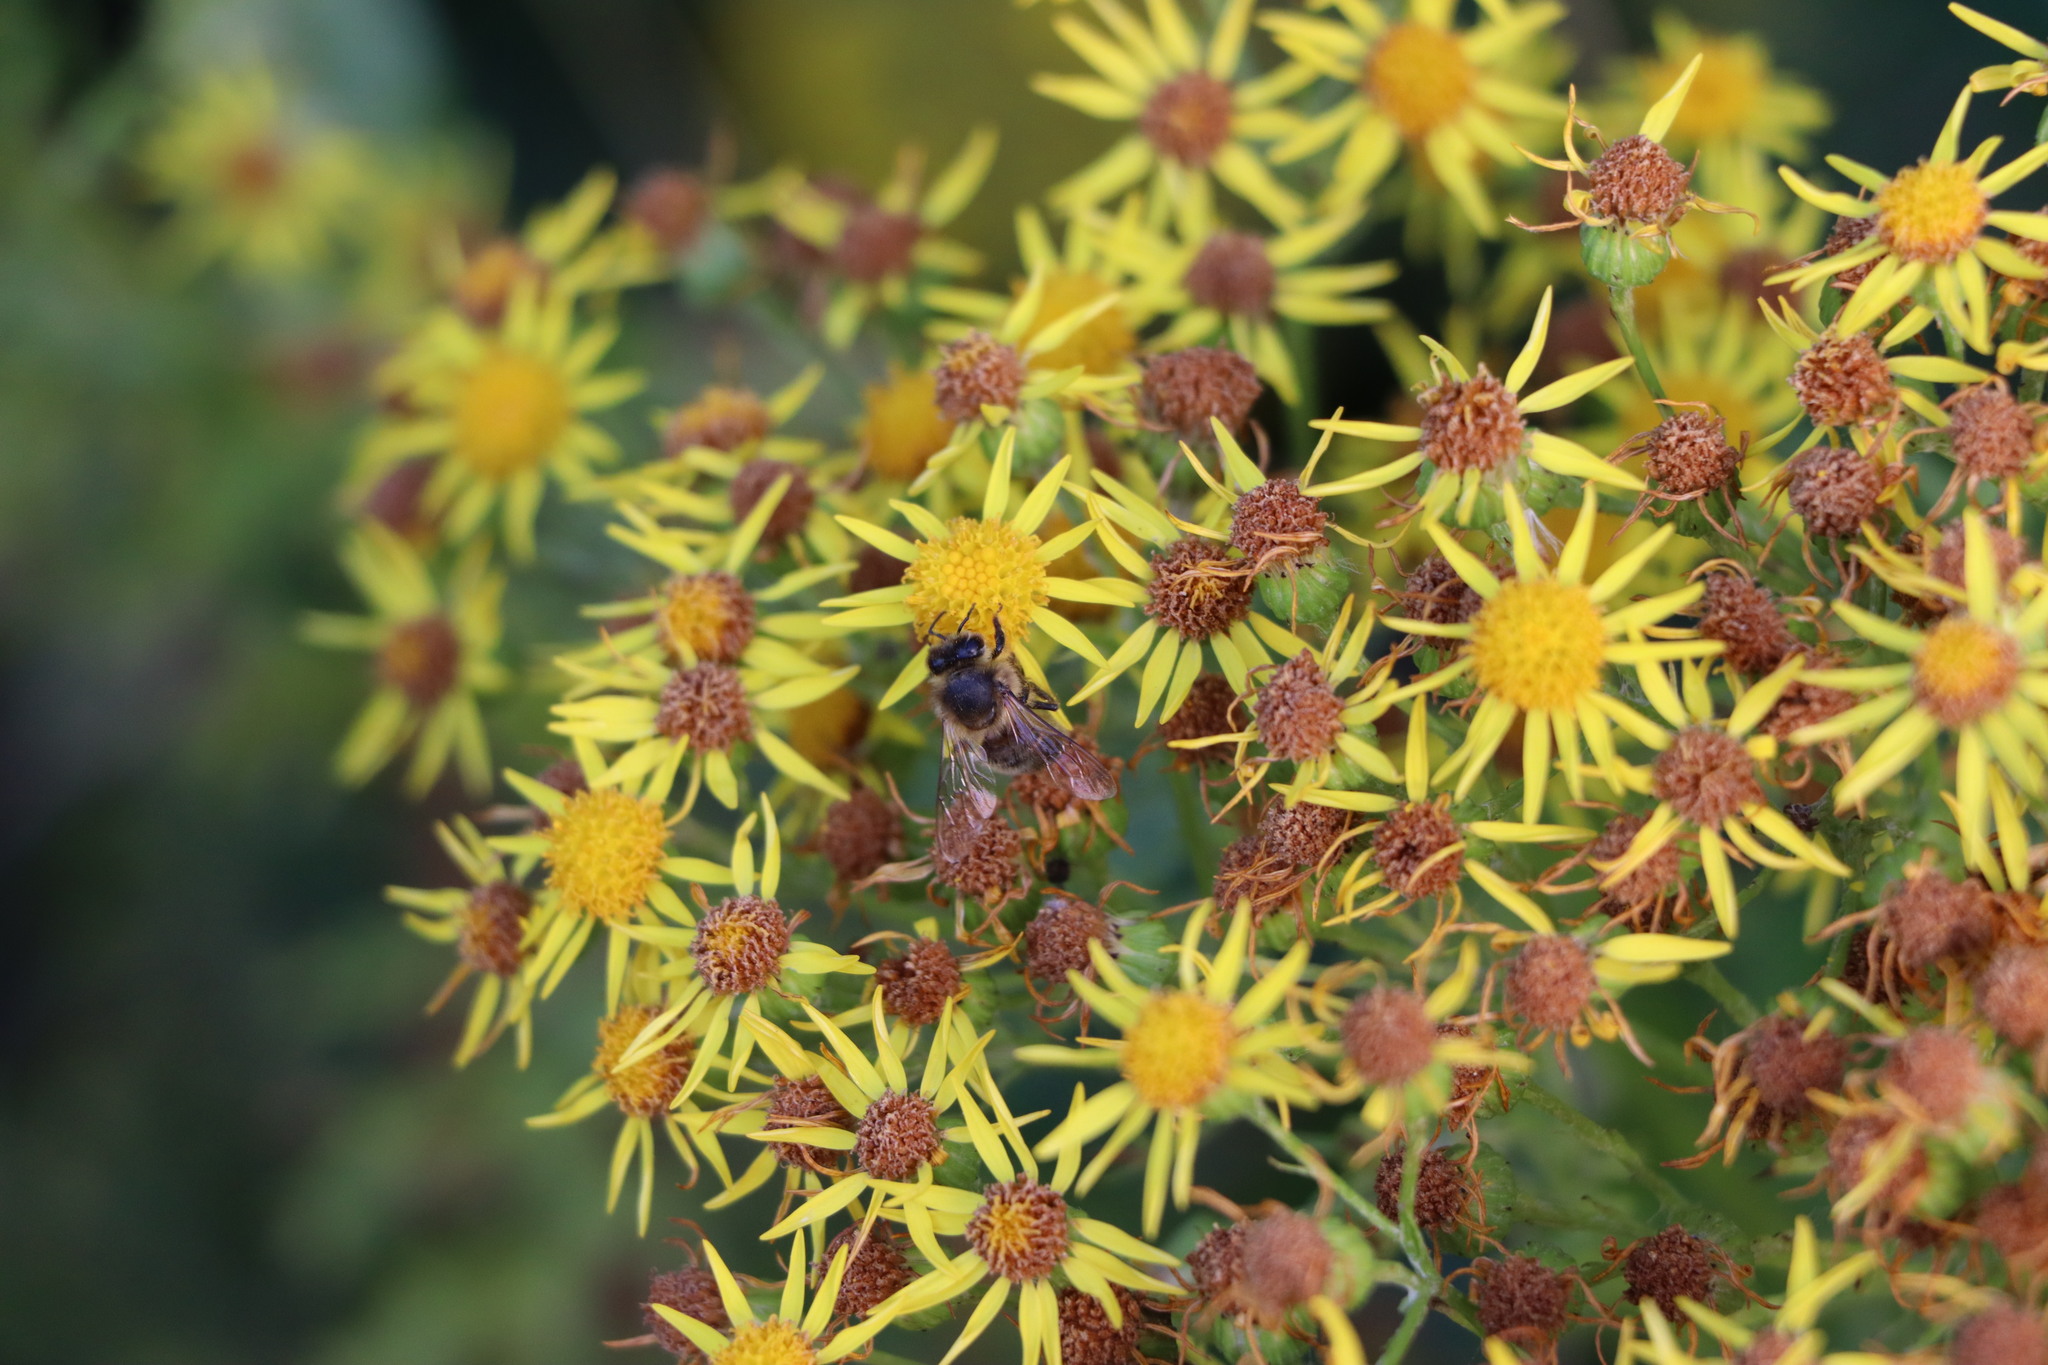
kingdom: Animalia
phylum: Arthropoda
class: Insecta
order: Hymenoptera
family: Apidae
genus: Apis
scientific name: Apis mellifera
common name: Honey bee
